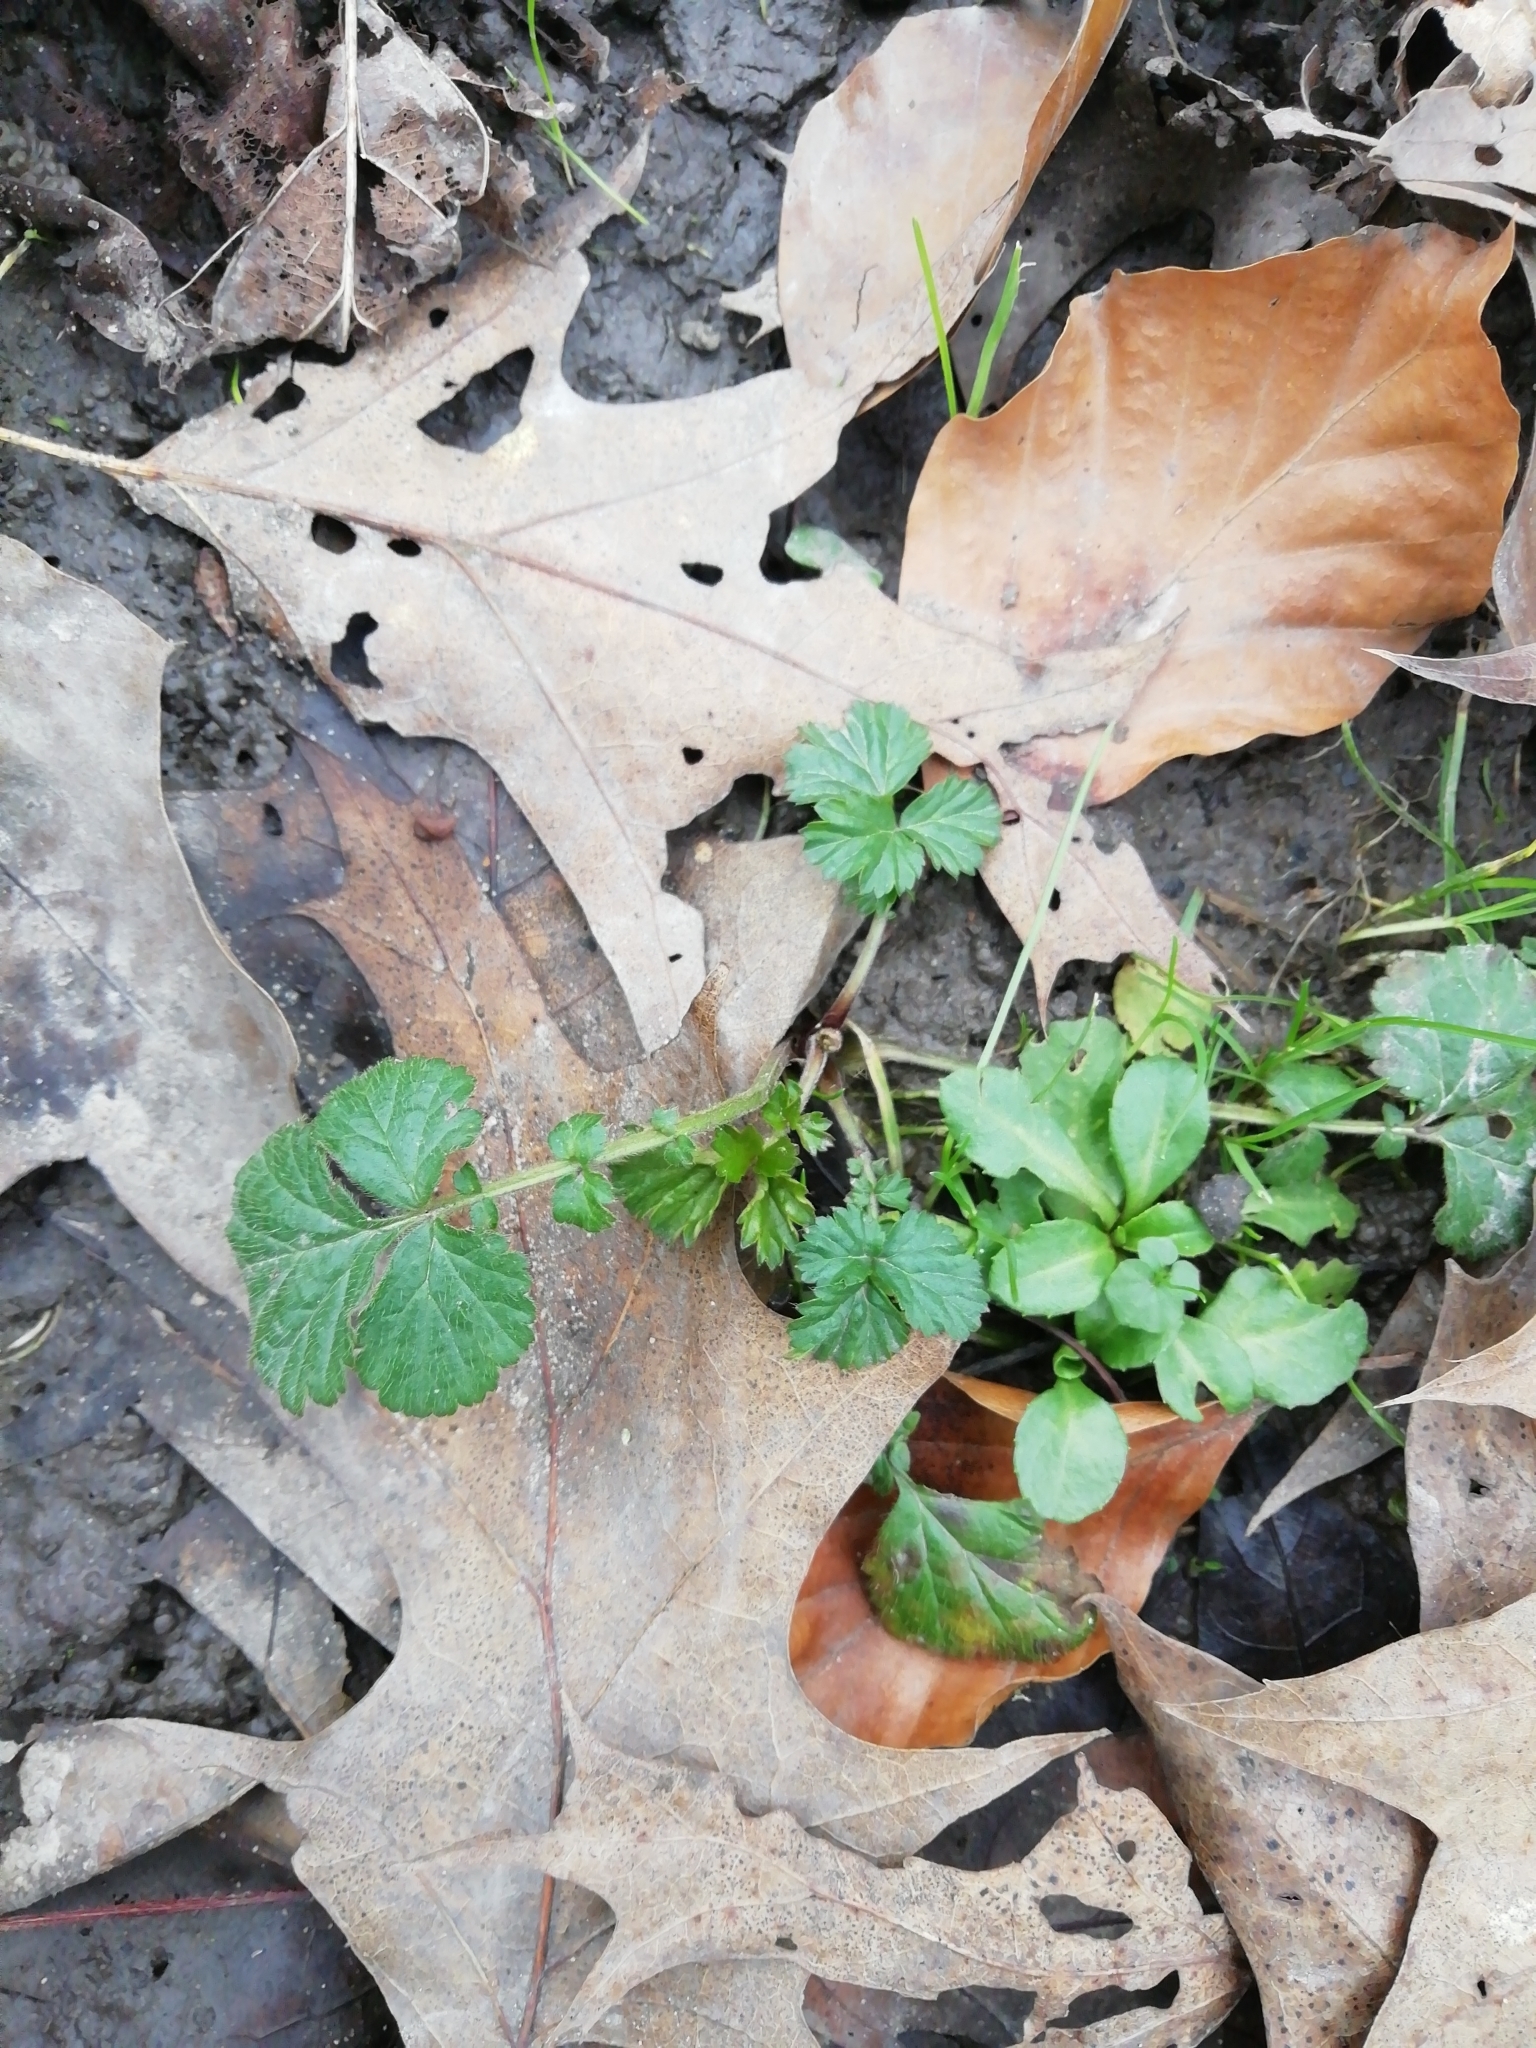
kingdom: Plantae
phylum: Tracheophyta
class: Magnoliopsida
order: Rosales
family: Rosaceae
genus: Geum
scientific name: Geum urbanum
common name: Wood avens
